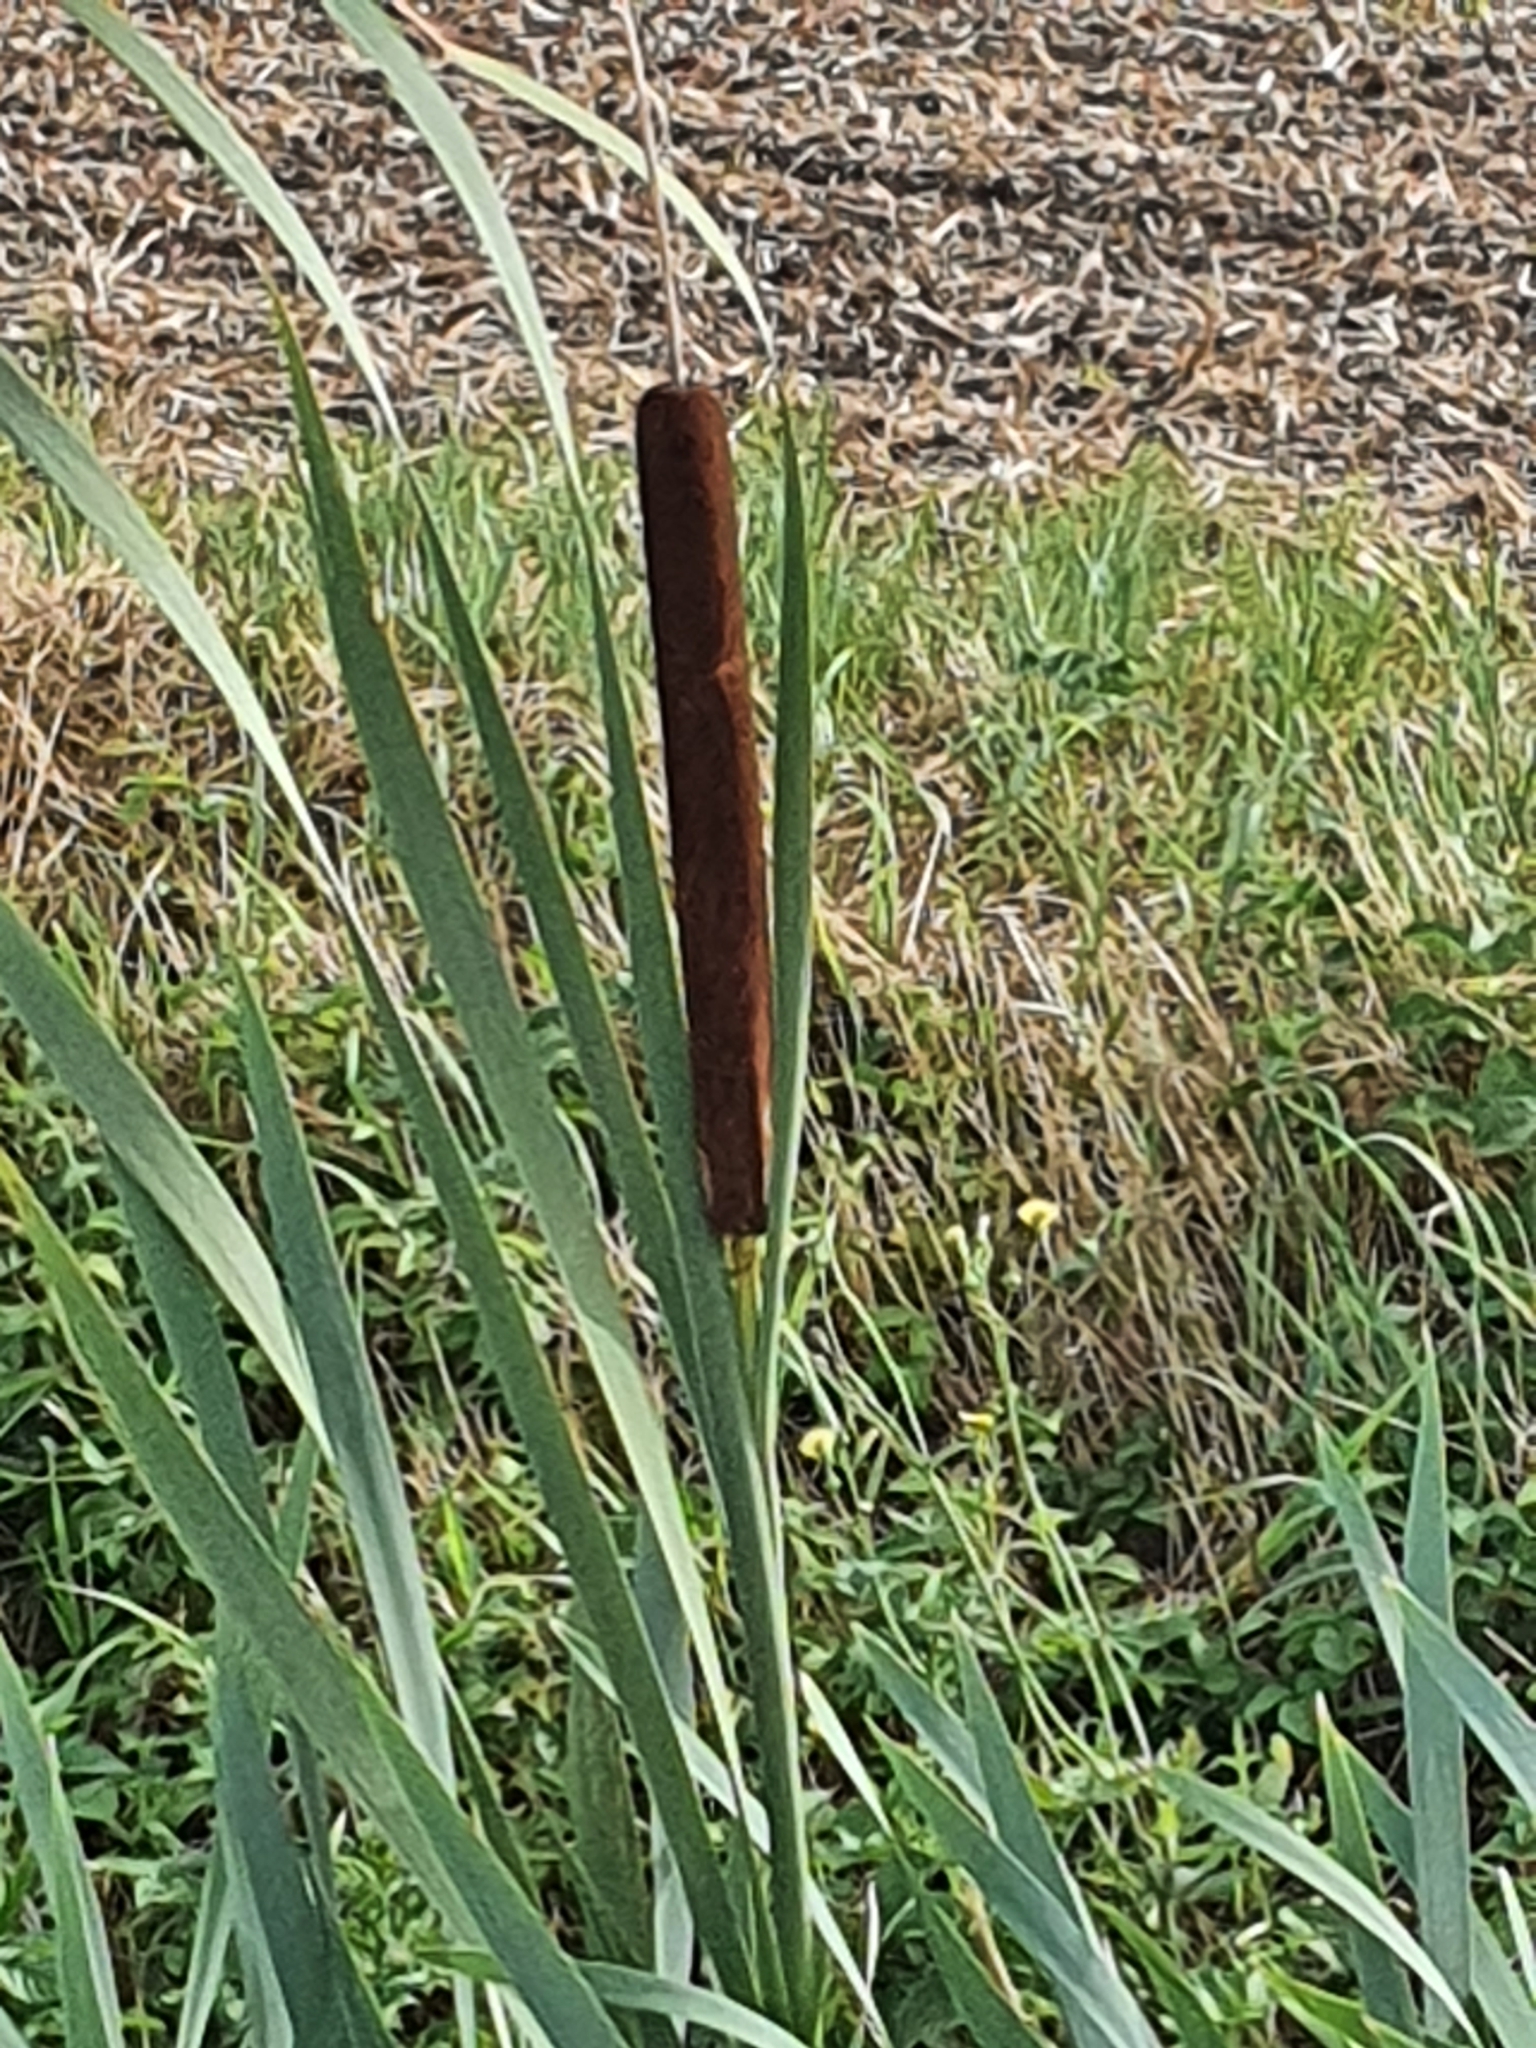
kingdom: Plantae
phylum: Tracheophyta
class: Liliopsida
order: Poales
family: Typhaceae
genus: Typha
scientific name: Typha latifolia
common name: Broadleaf cattail
